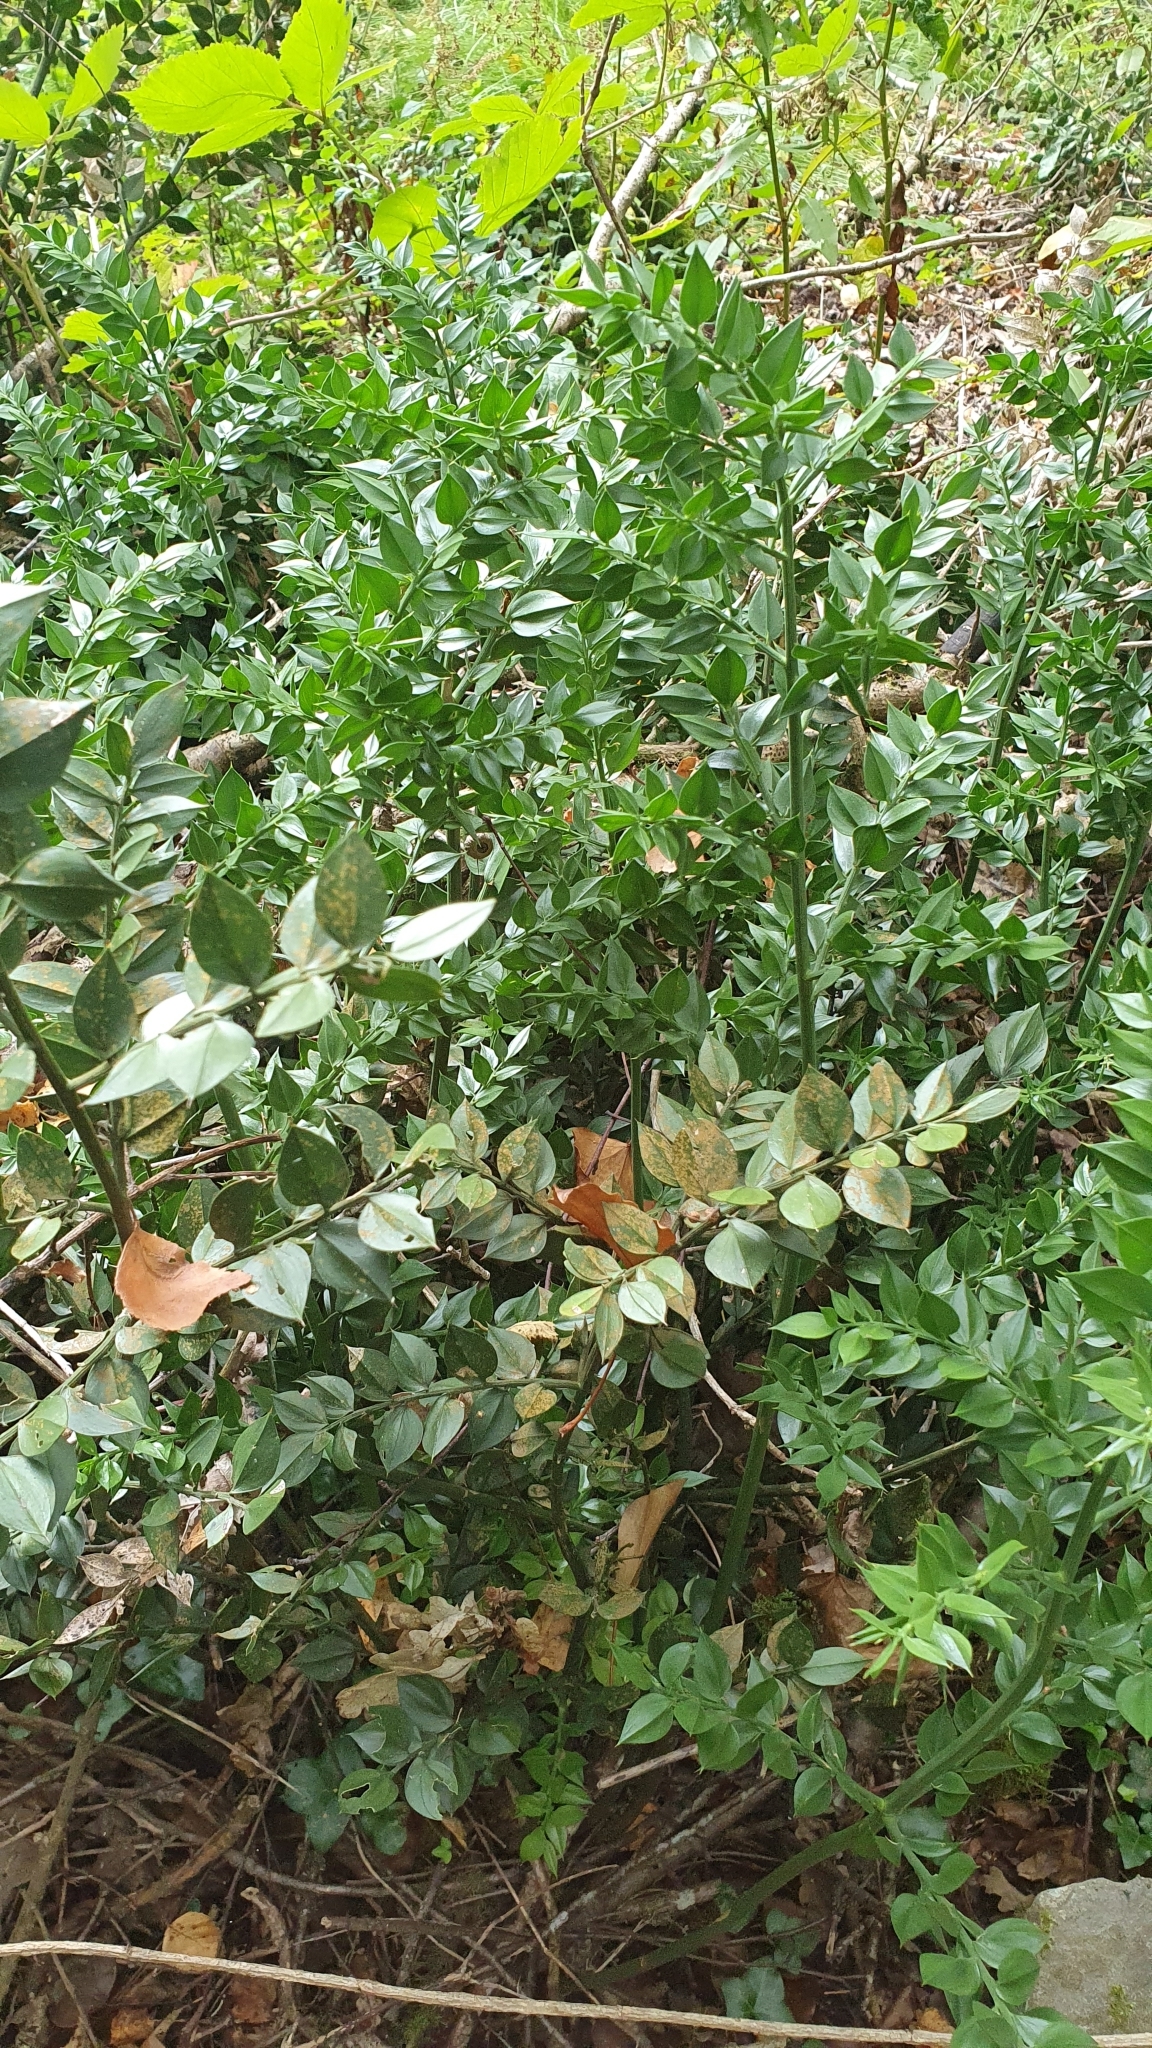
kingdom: Plantae
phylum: Tracheophyta
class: Liliopsida
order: Asparagales
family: Asparagaceae
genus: Ruscus
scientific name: Ruscus aculeatus
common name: Butcher's-broom
